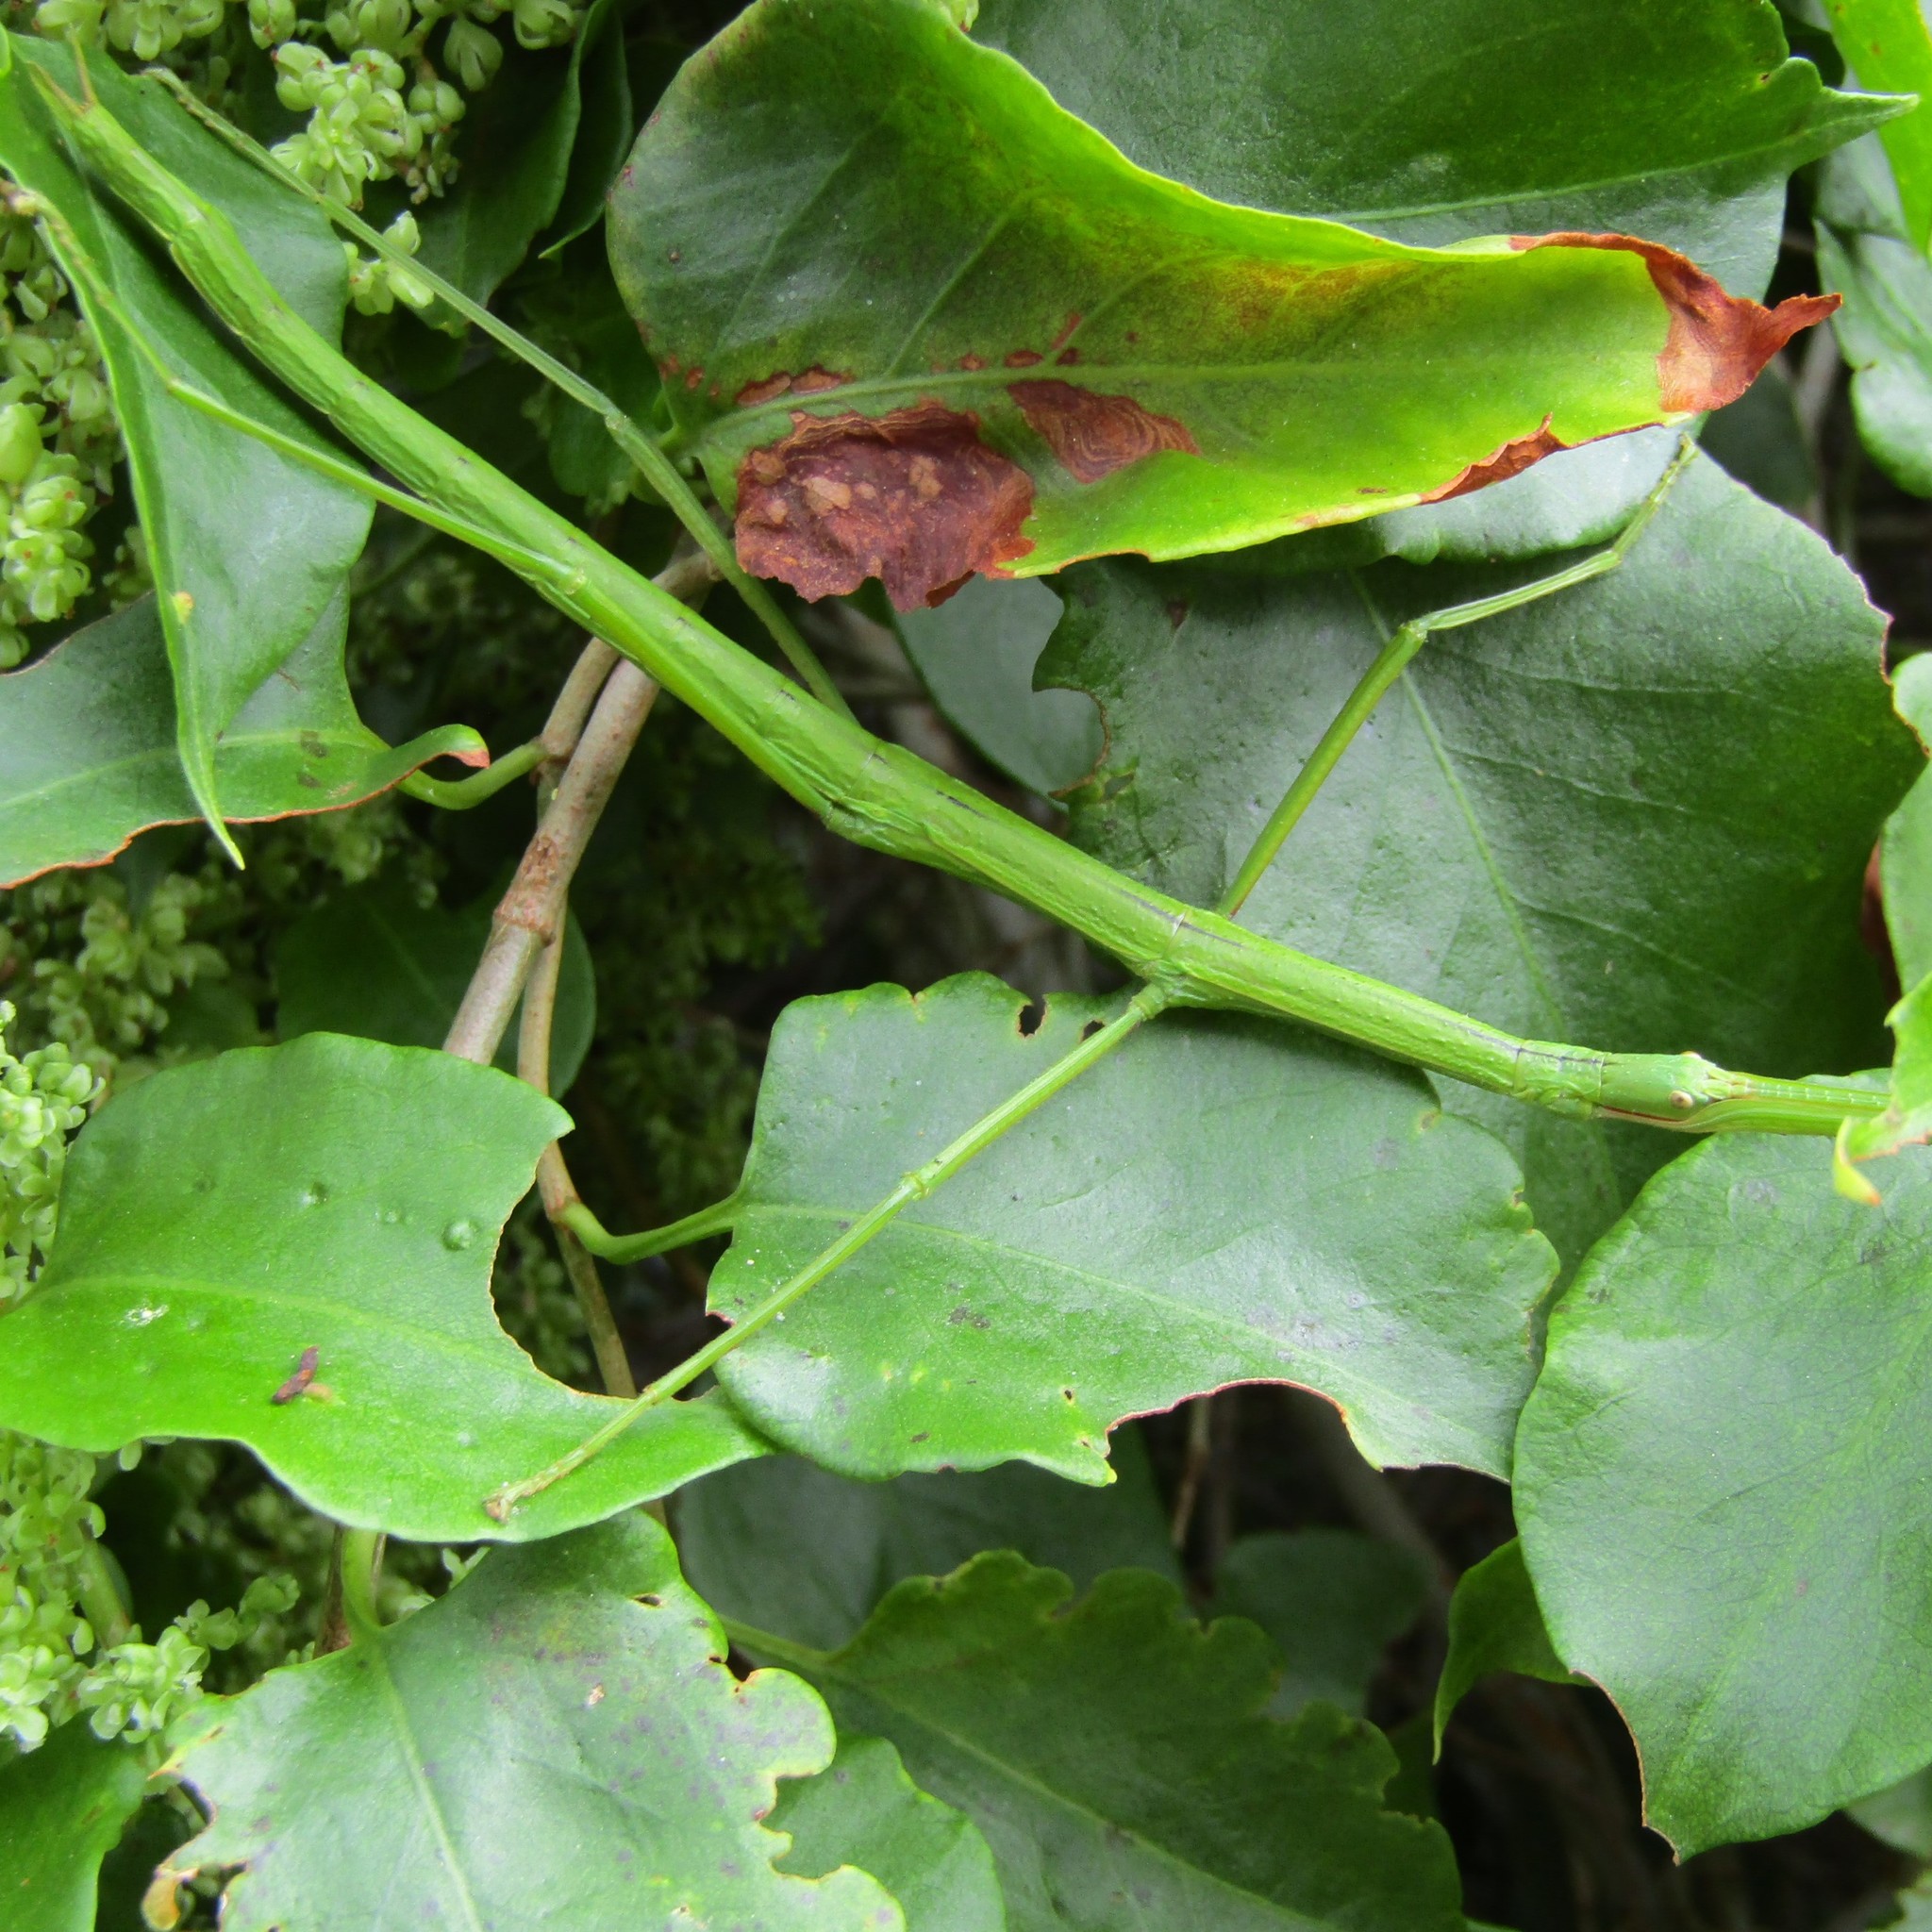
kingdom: Animalia
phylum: Arthropoda
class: Insecta
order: Phasmida
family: Phasmatidae
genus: Clitarchus
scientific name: Clitarchus hookeri
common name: Smooth stick insect
